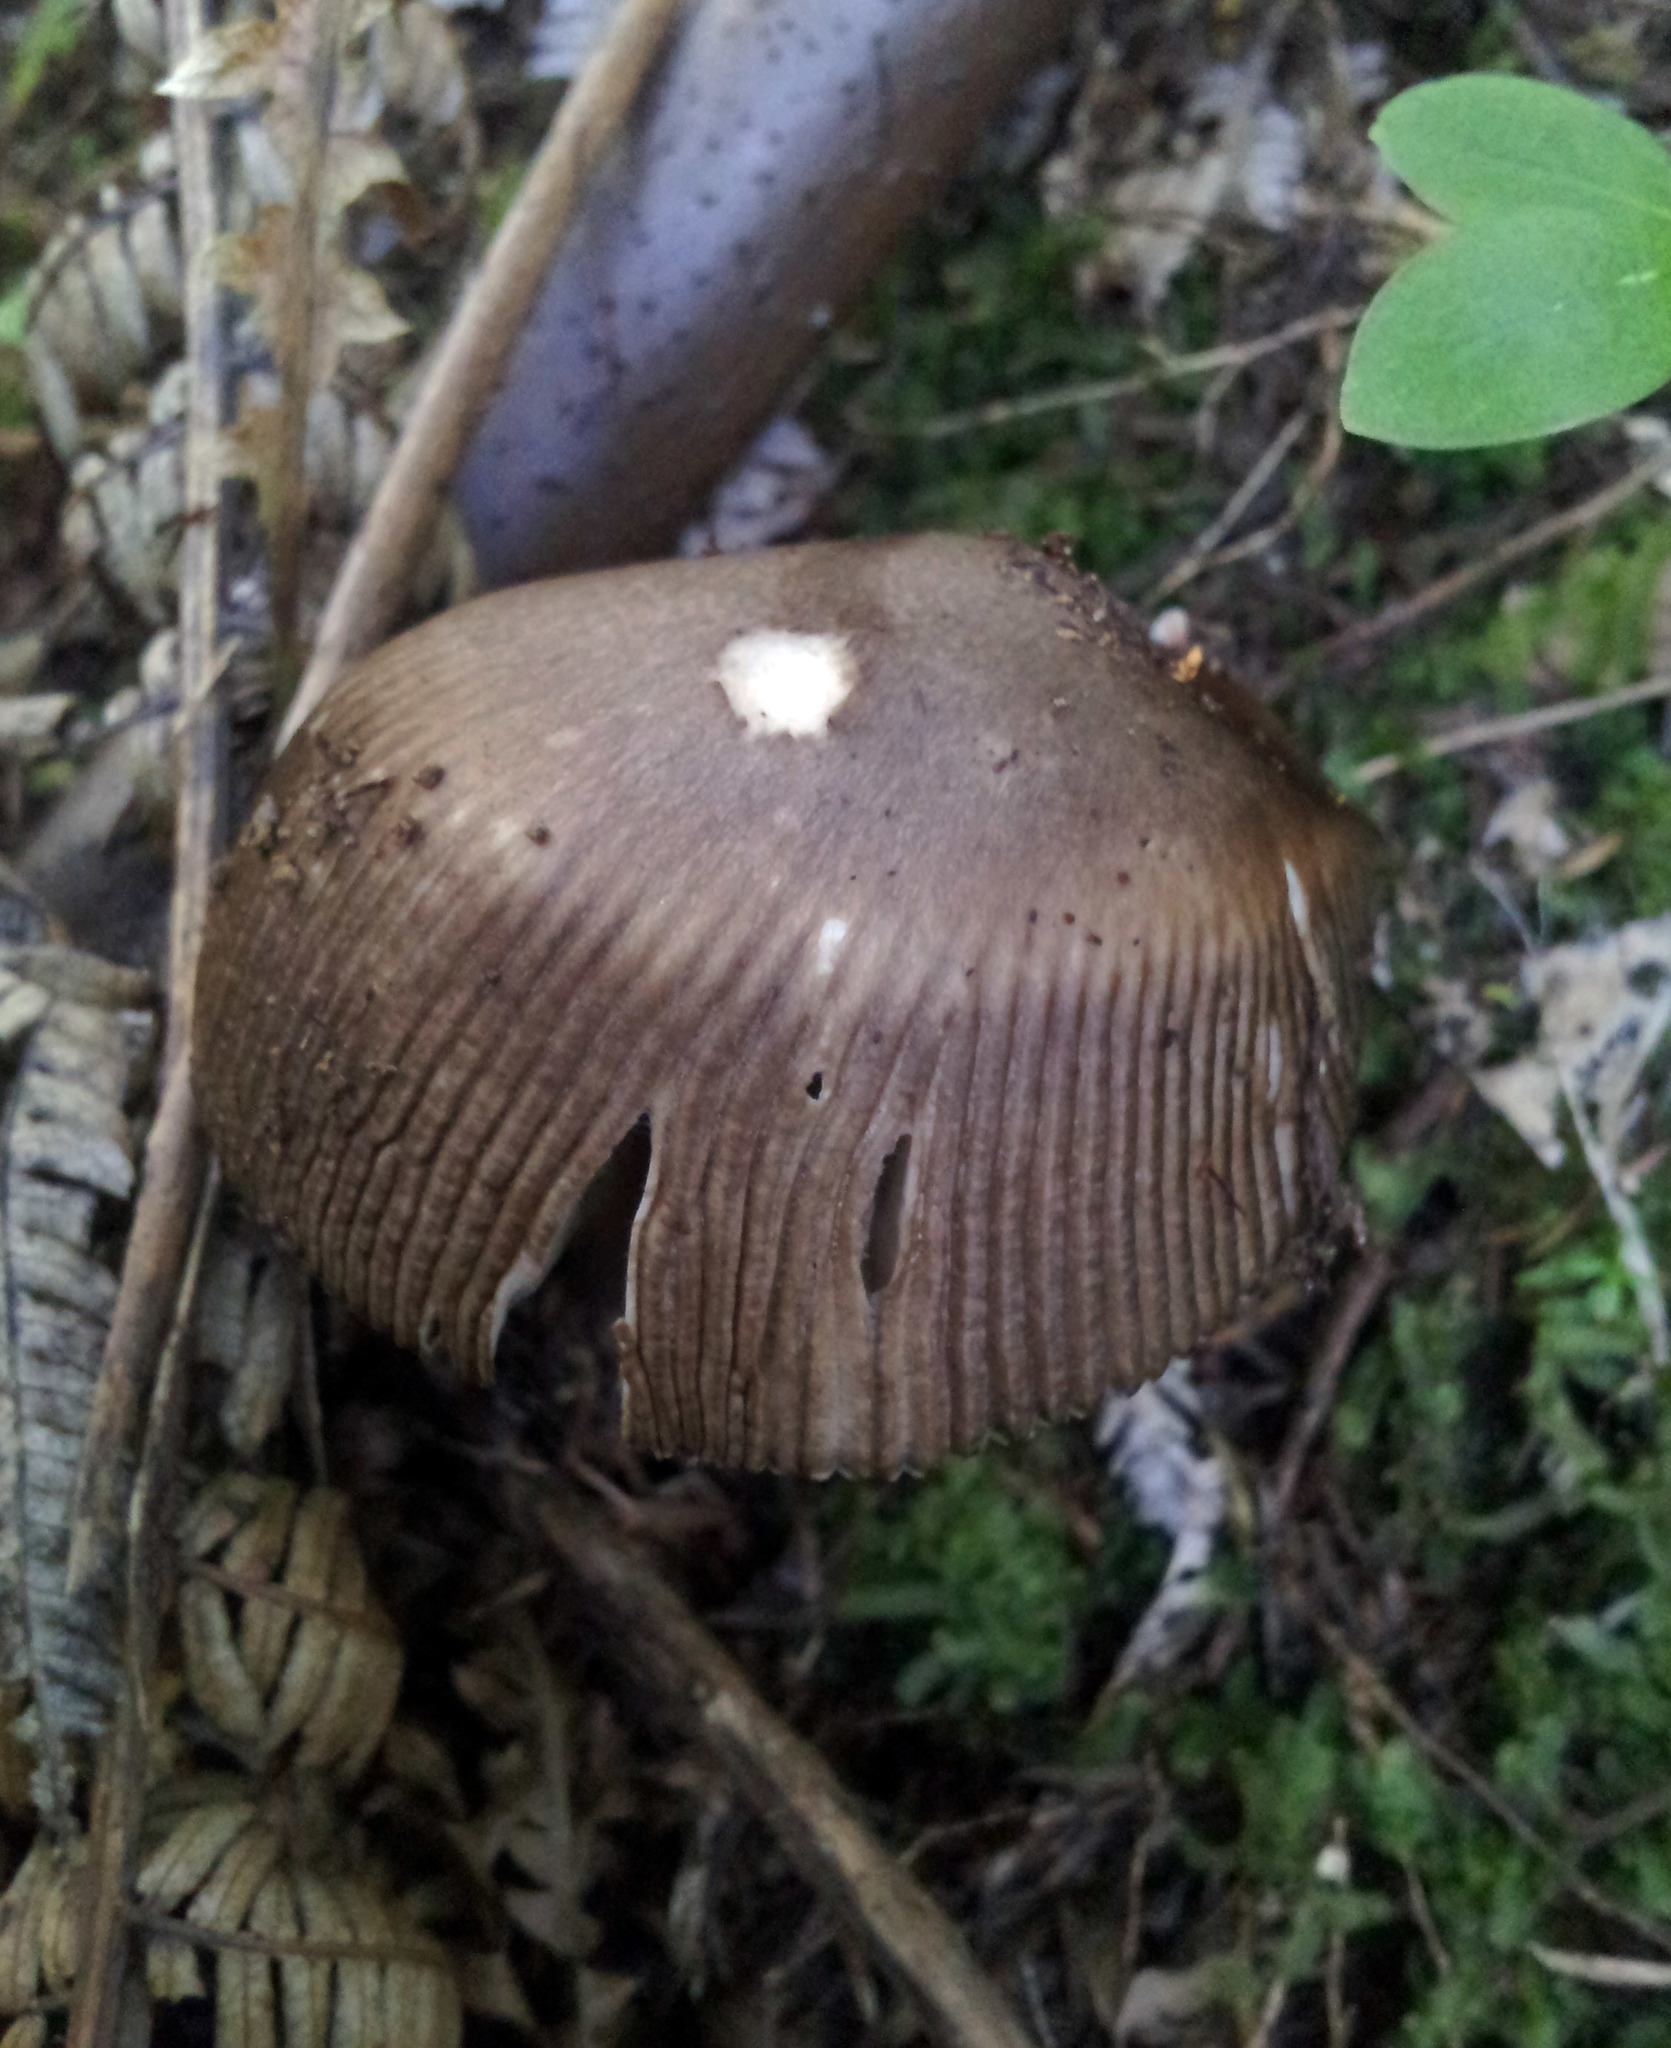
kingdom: Fungi
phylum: Basidiomycota
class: Agaricomycetes
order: Agaricales
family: Amanitaceae
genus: Amanita
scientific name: Amanita pekeoides
